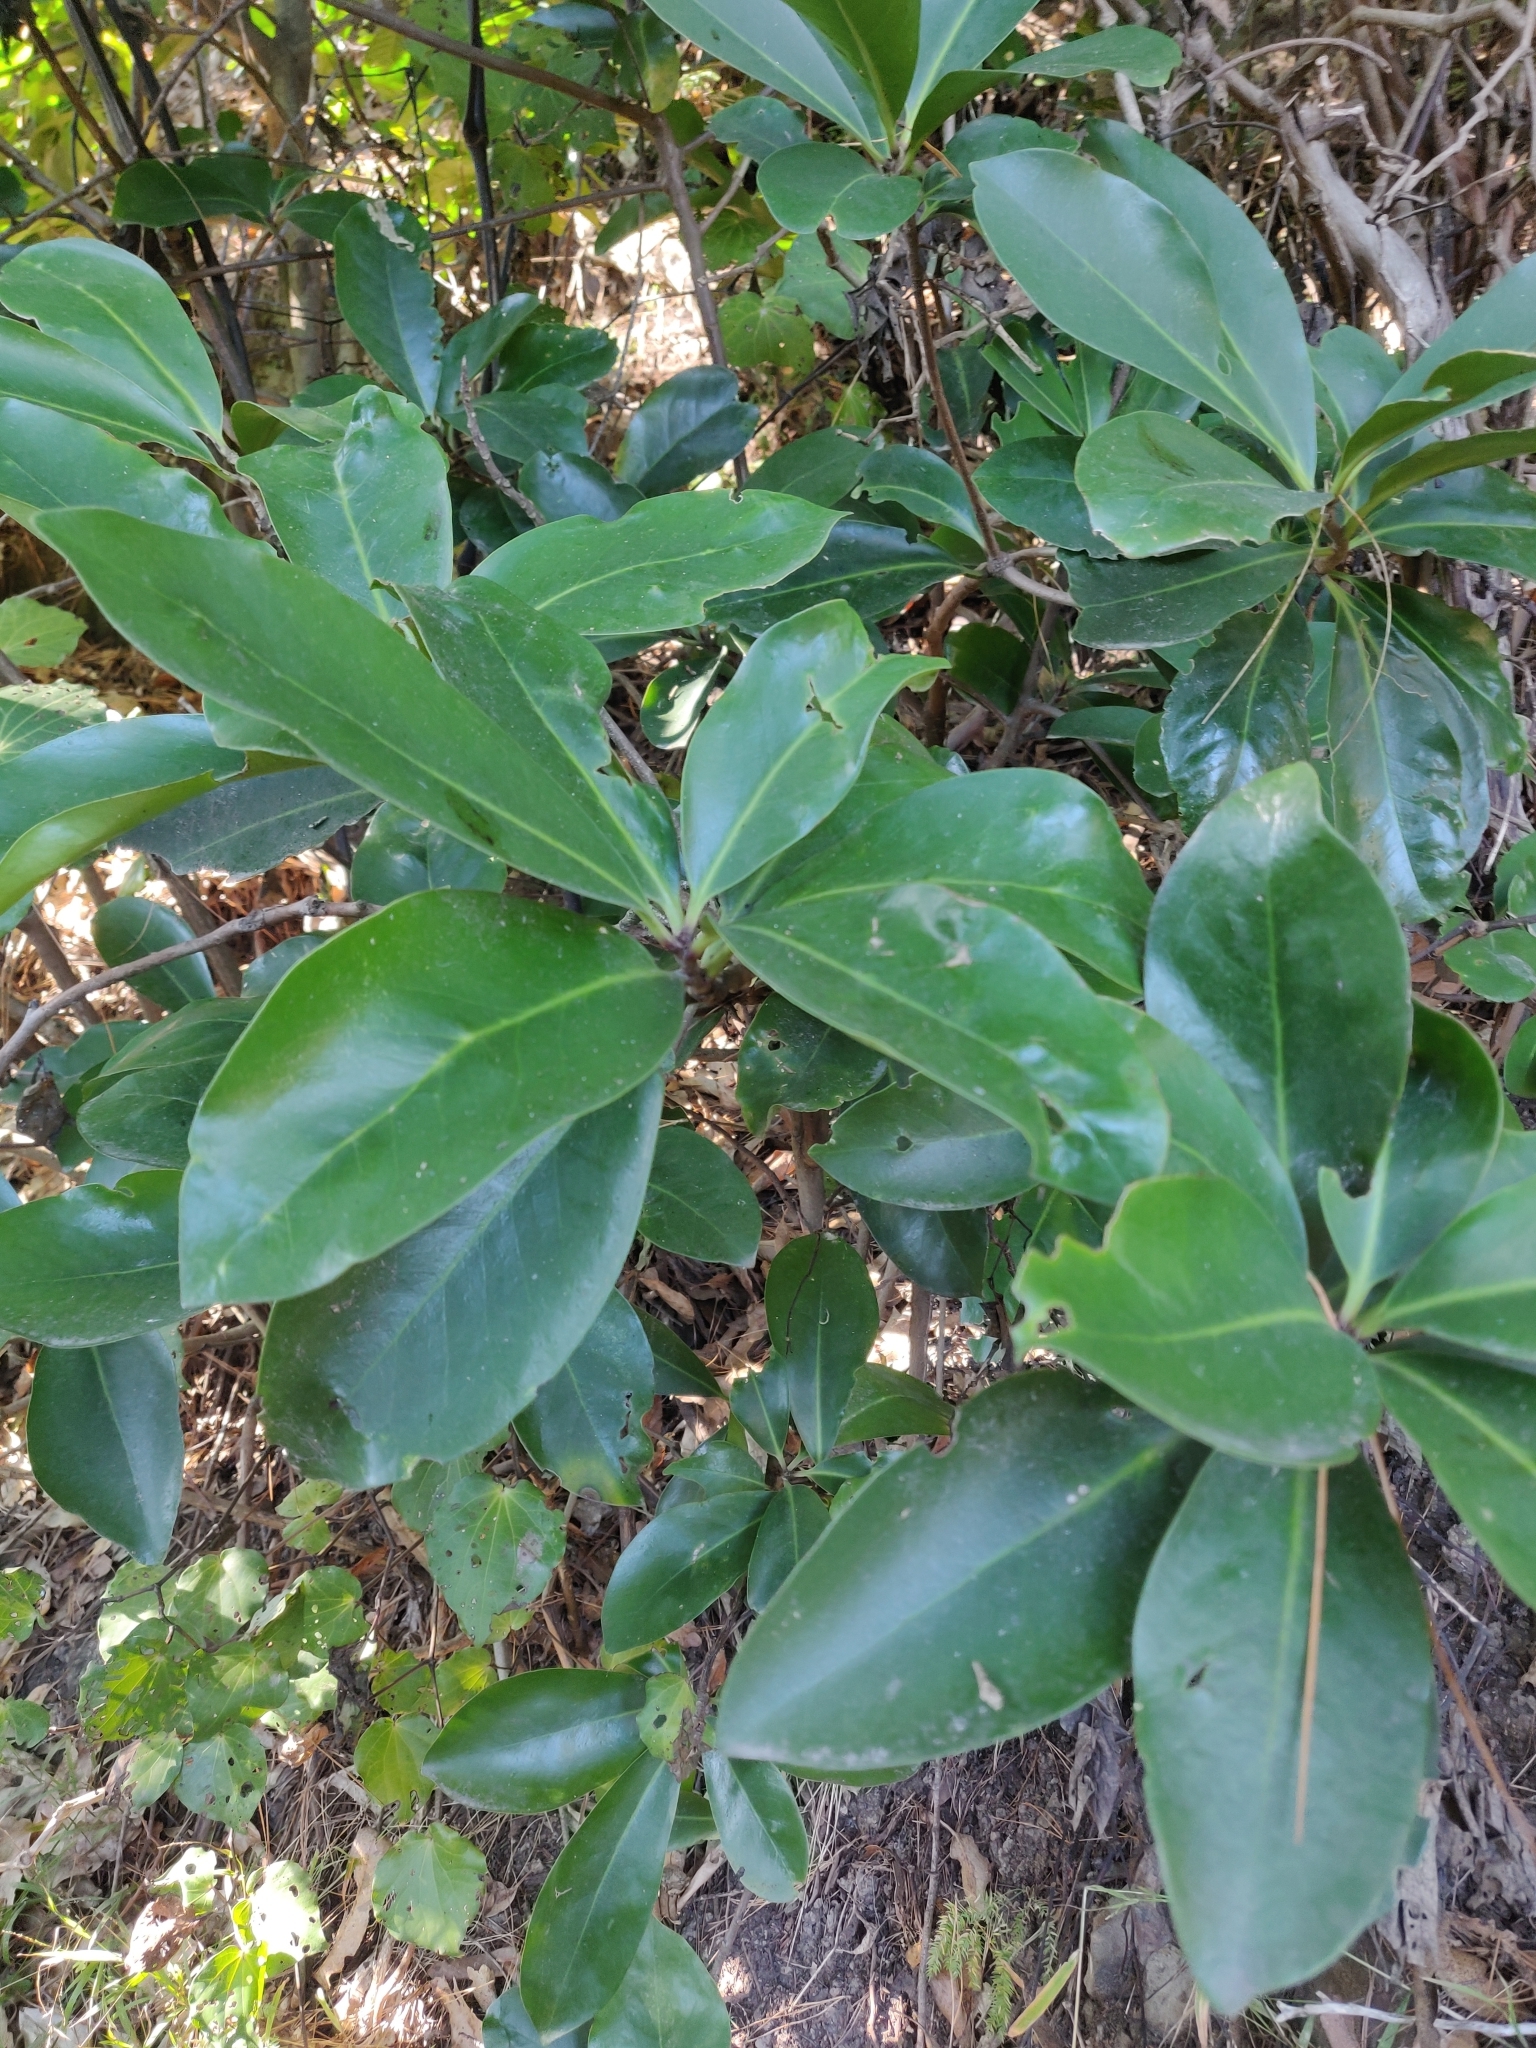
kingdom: Plantae
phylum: Tracheophyta
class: Magnoliopsida
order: Cucurbitales
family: Corynocarpaceae
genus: Corynocarpus
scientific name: Corynocarpus laevigatus
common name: New zealand laurel
